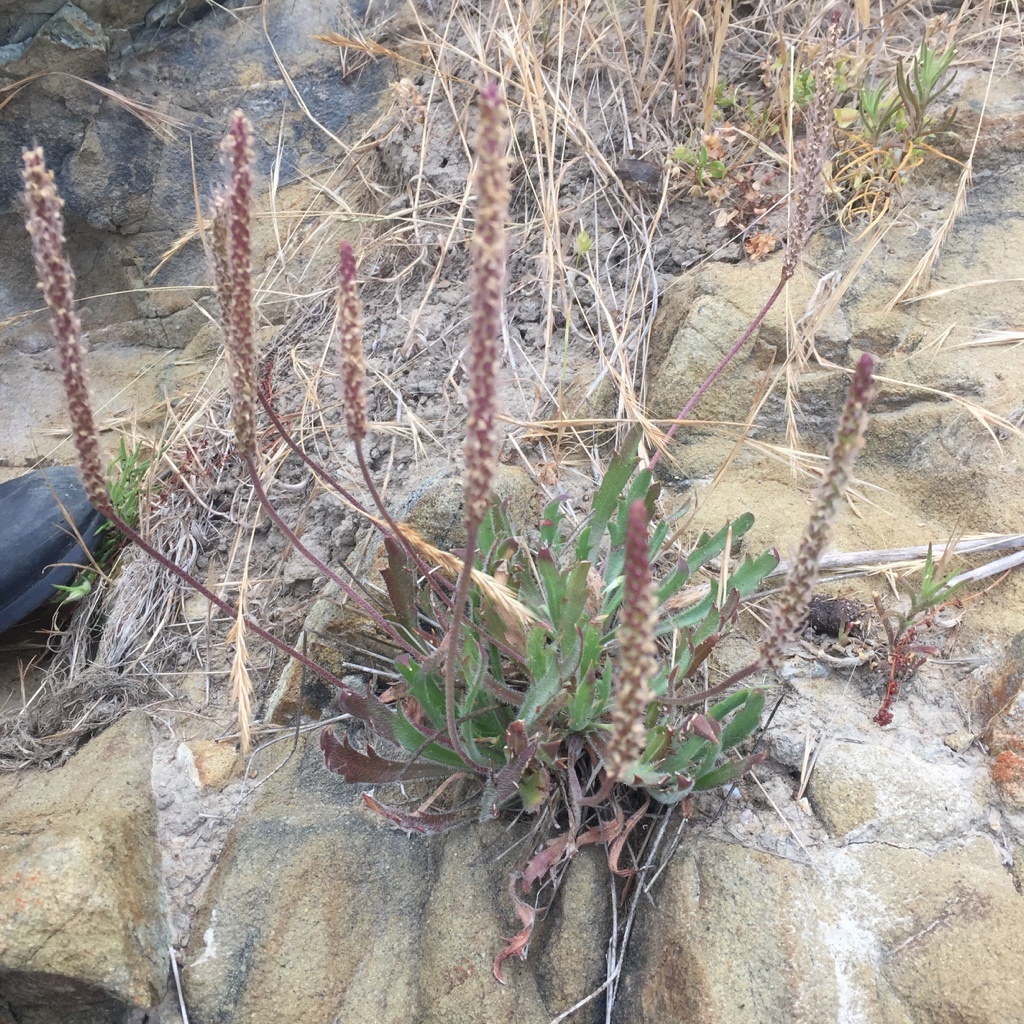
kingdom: Plantae
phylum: Tracheophyta
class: Magnoliopsida
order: Lamiales
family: Plantaginaceae
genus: Plantago
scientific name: Plantago coronopus
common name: Buck's-horn plantain
